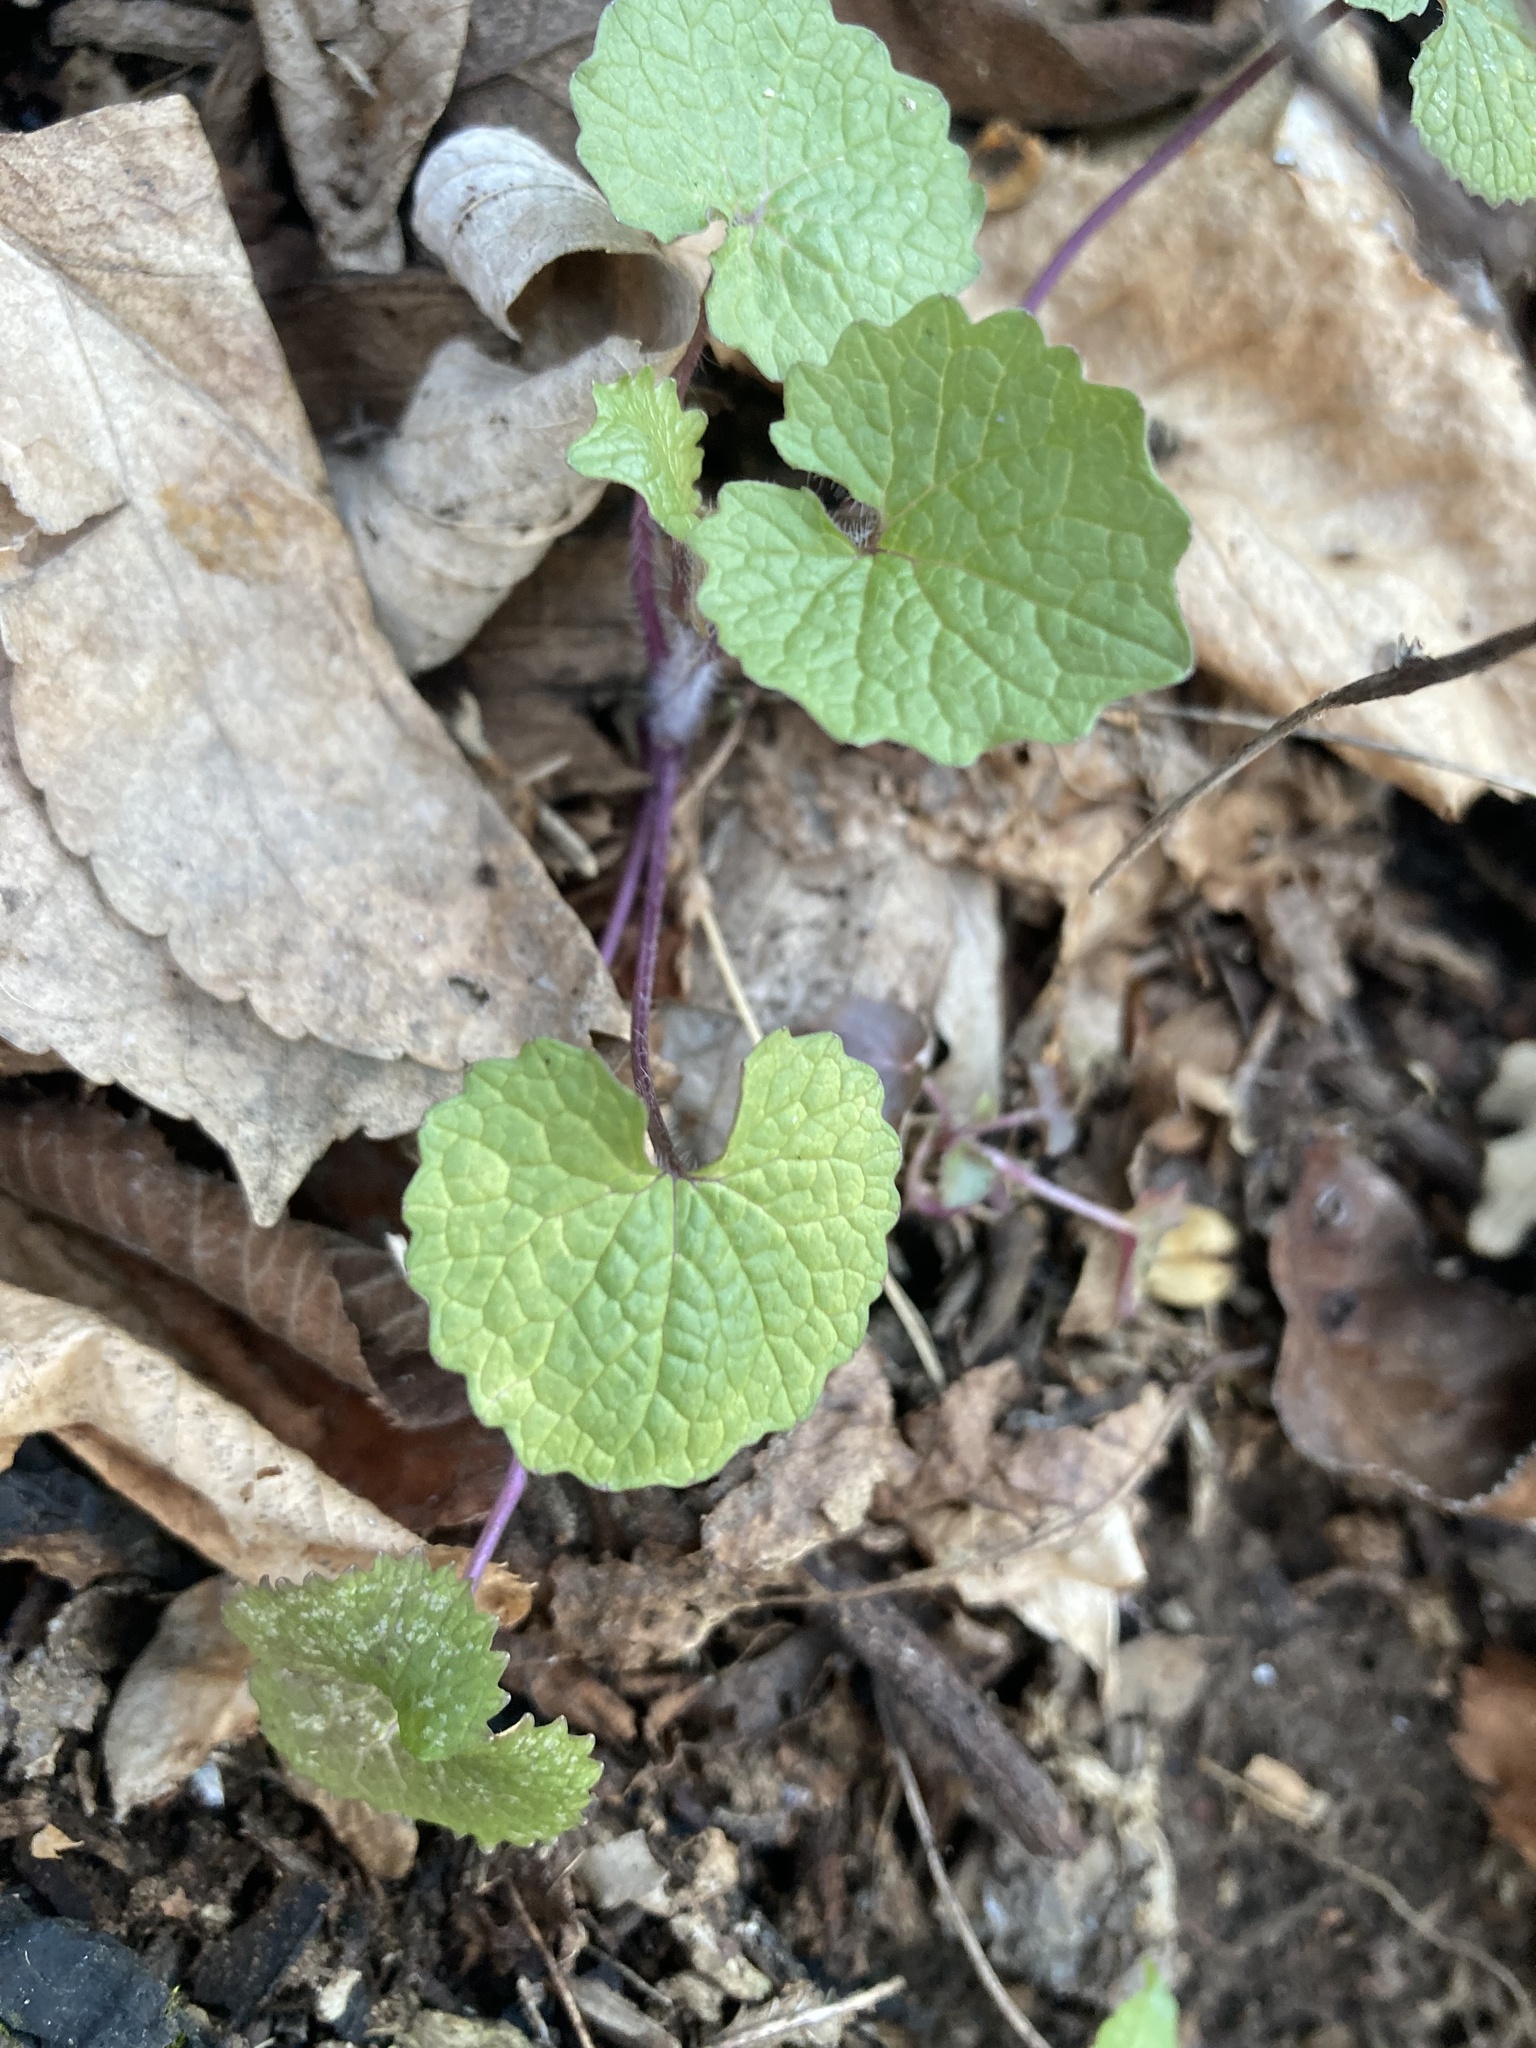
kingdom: Plantae
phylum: Tracheophyta
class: Magnoliopsida
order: Brassicales
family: Brassicaceae
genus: Alliaria
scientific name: Alliaria petiolata
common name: Garlic mustard
